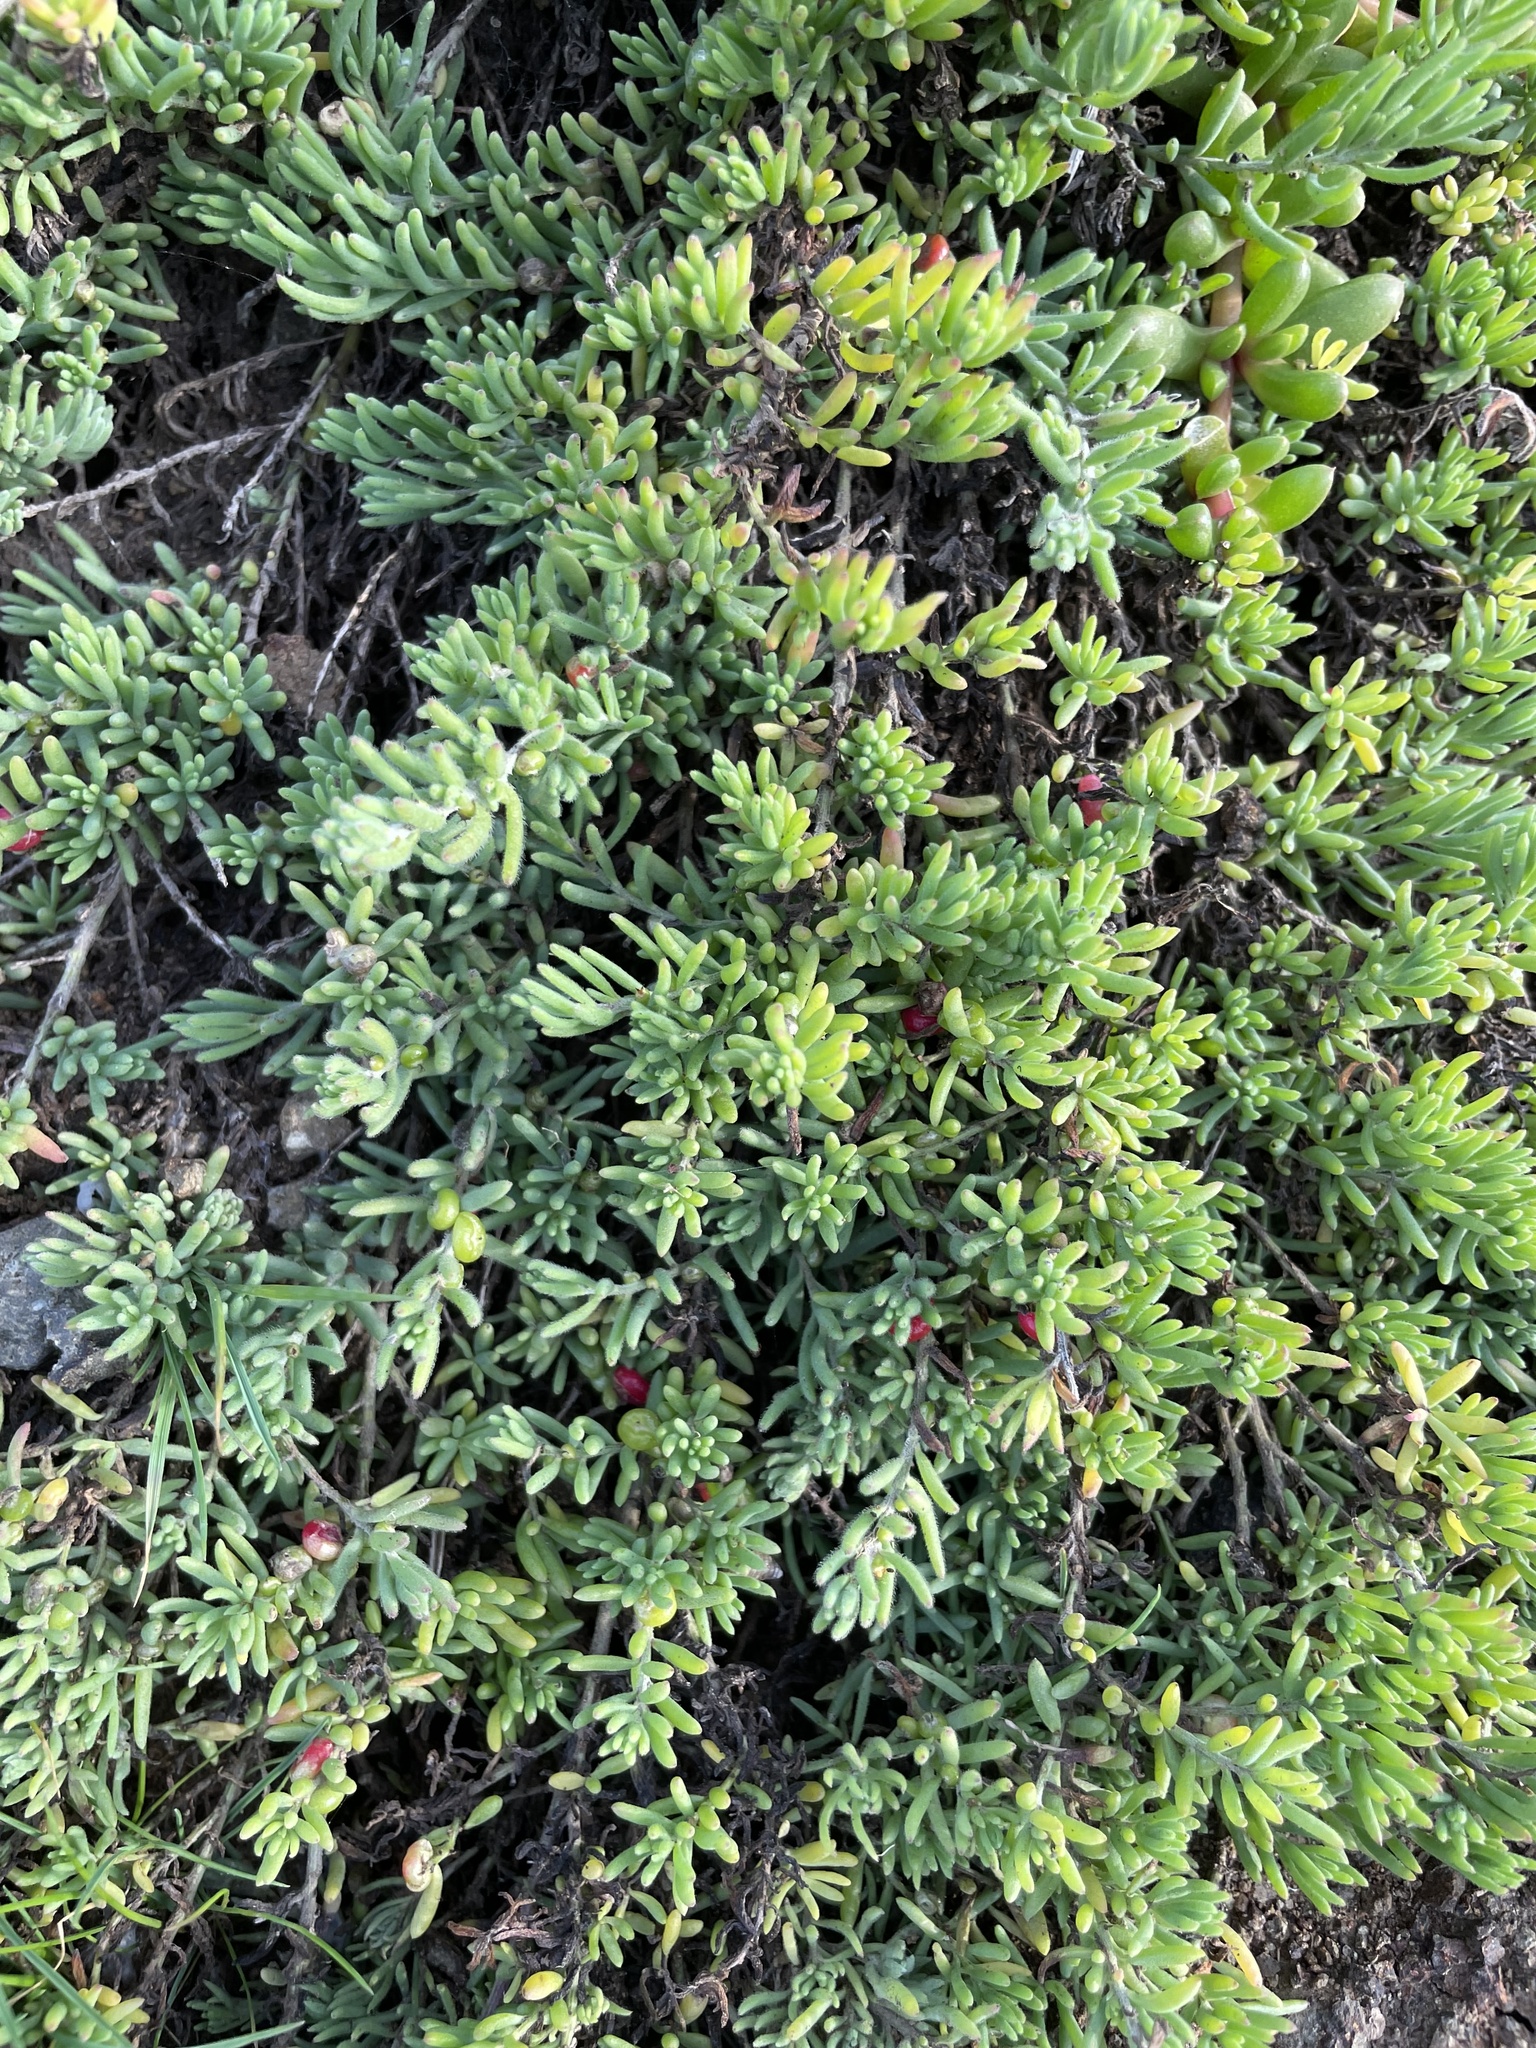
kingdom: Plantae
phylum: Tracheophyta
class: Magnoliopsida
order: Caryophyllales
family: Amaranthaceae
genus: Enchylaena
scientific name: Enchylaena tomentosa
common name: Ruby saltbush
